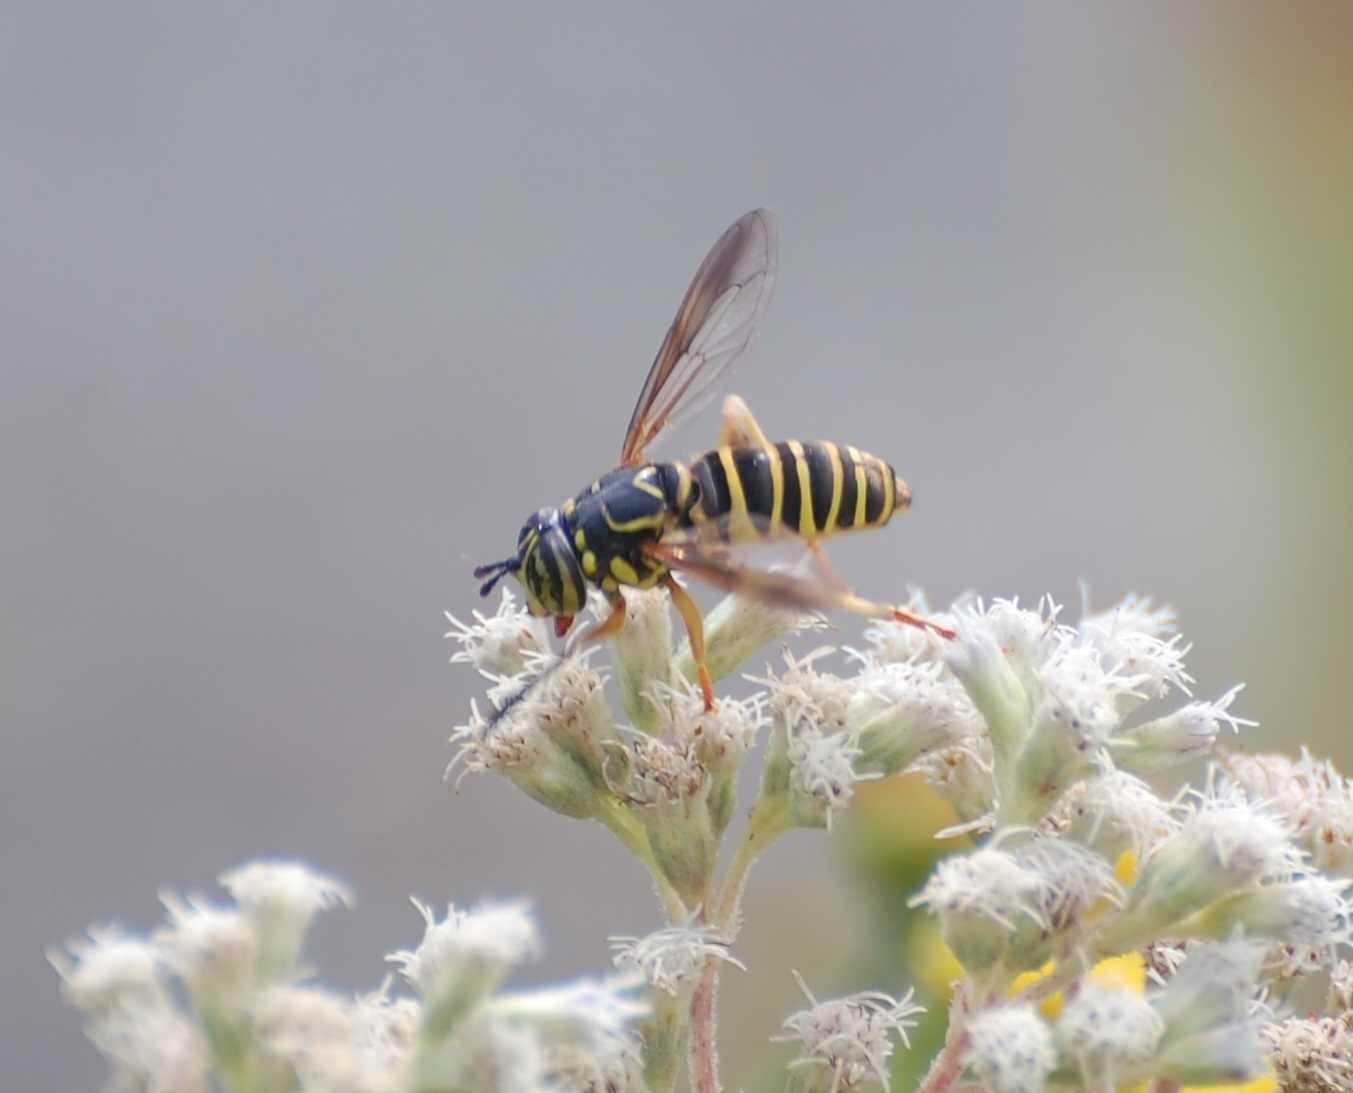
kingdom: Animalia
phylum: Arthropoda
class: Insecta
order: Diptera
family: Syrphidae
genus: Spilomyia
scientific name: Spilomyia longicornis
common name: Eastern hornet fly
